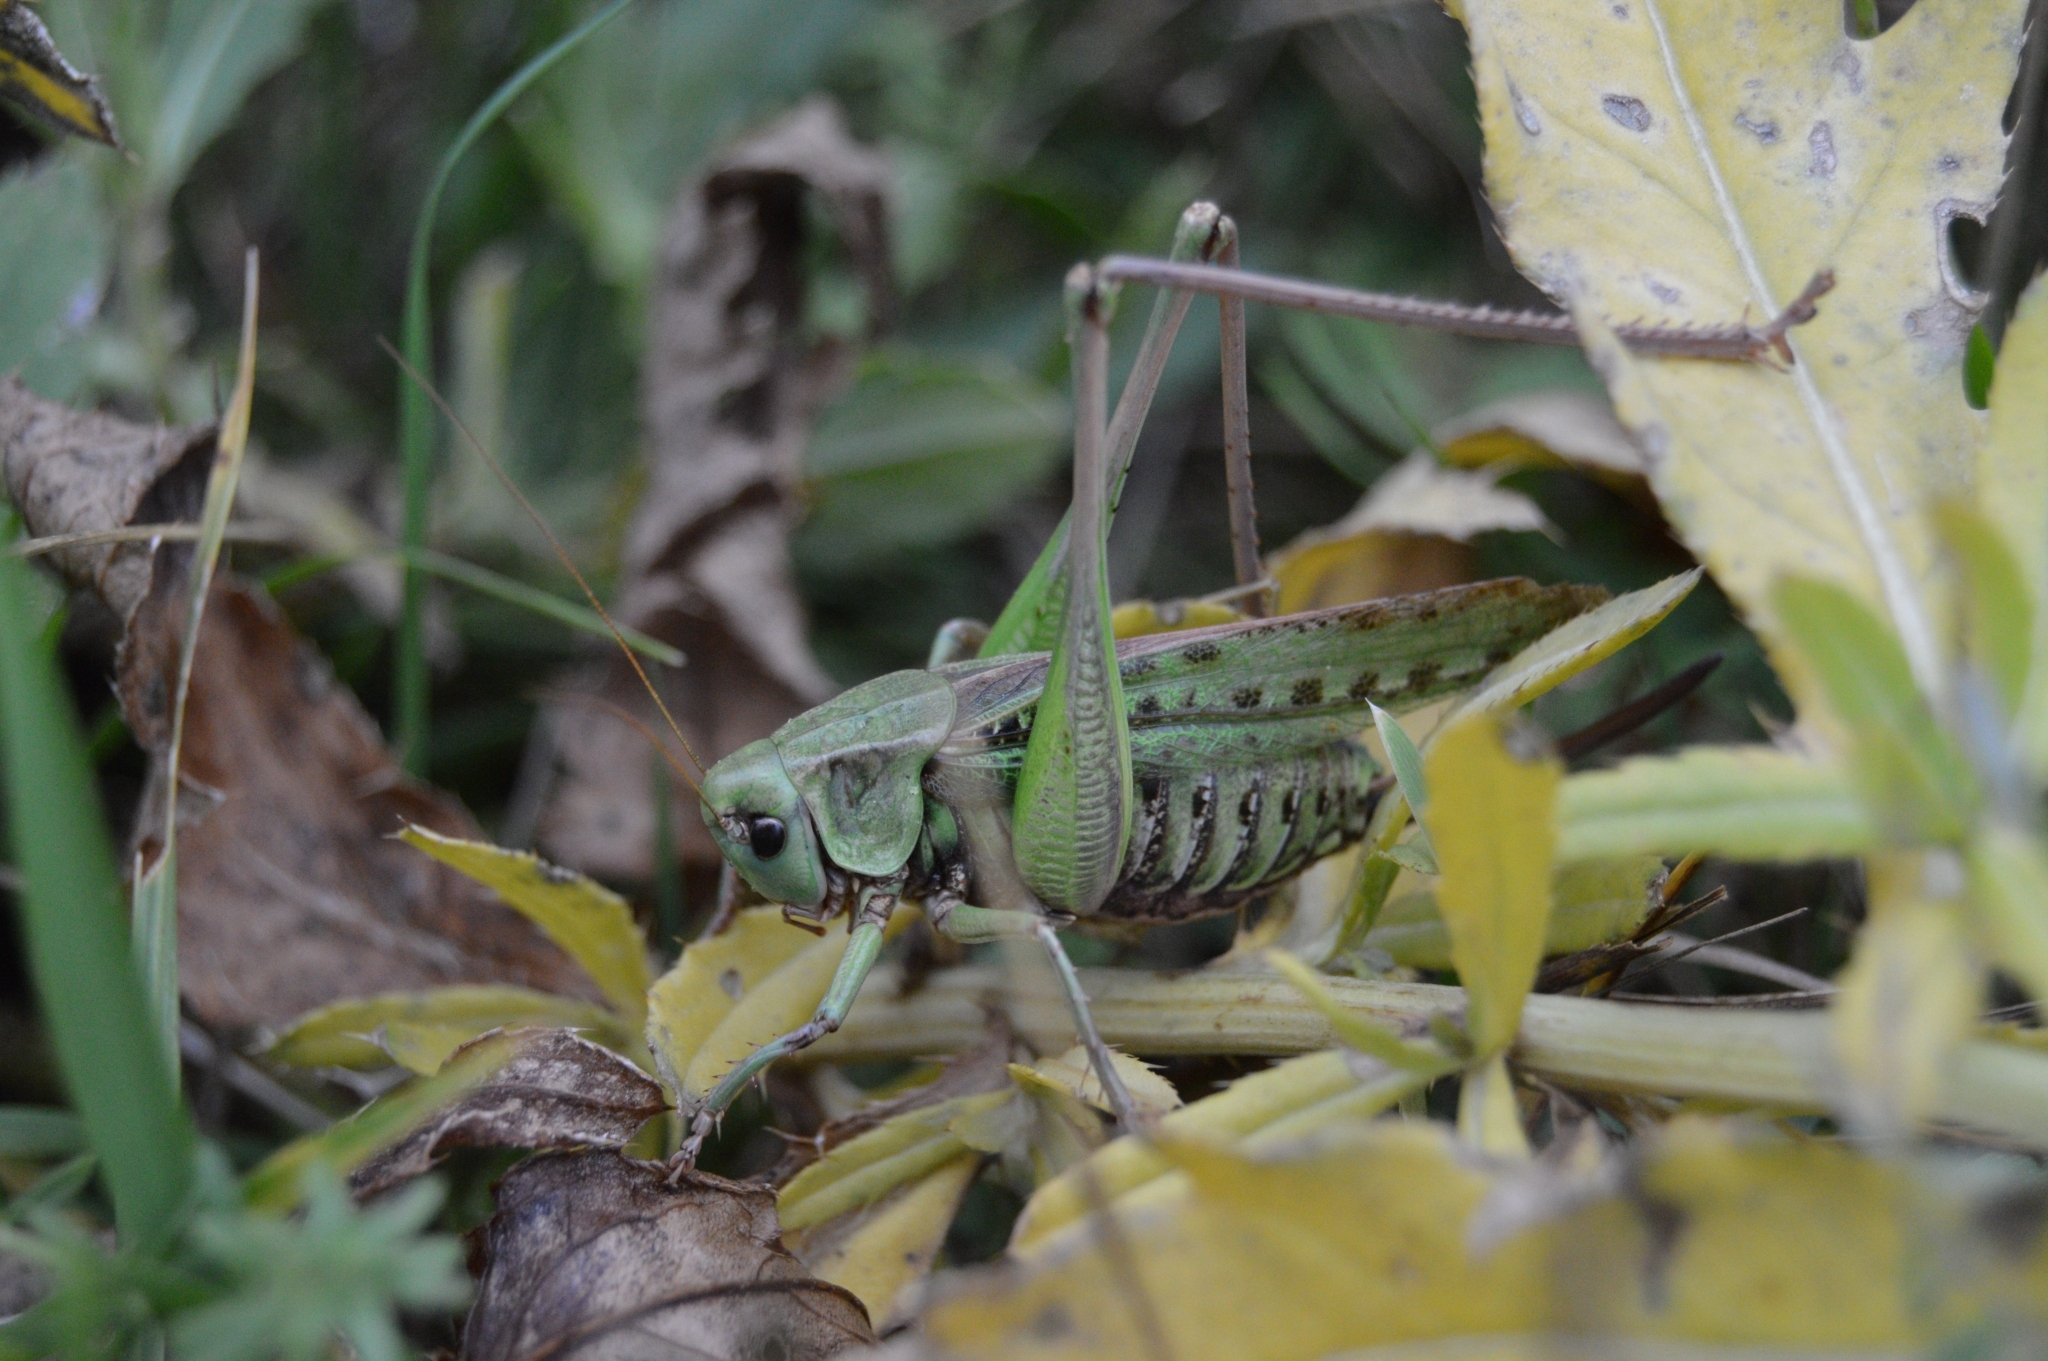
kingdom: Animalia
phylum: Arthropoda
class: Insecta
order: Orthoptera
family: Tettigoniidae
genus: Decticus
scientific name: Decticus verrucivorus
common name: Wart-biter
